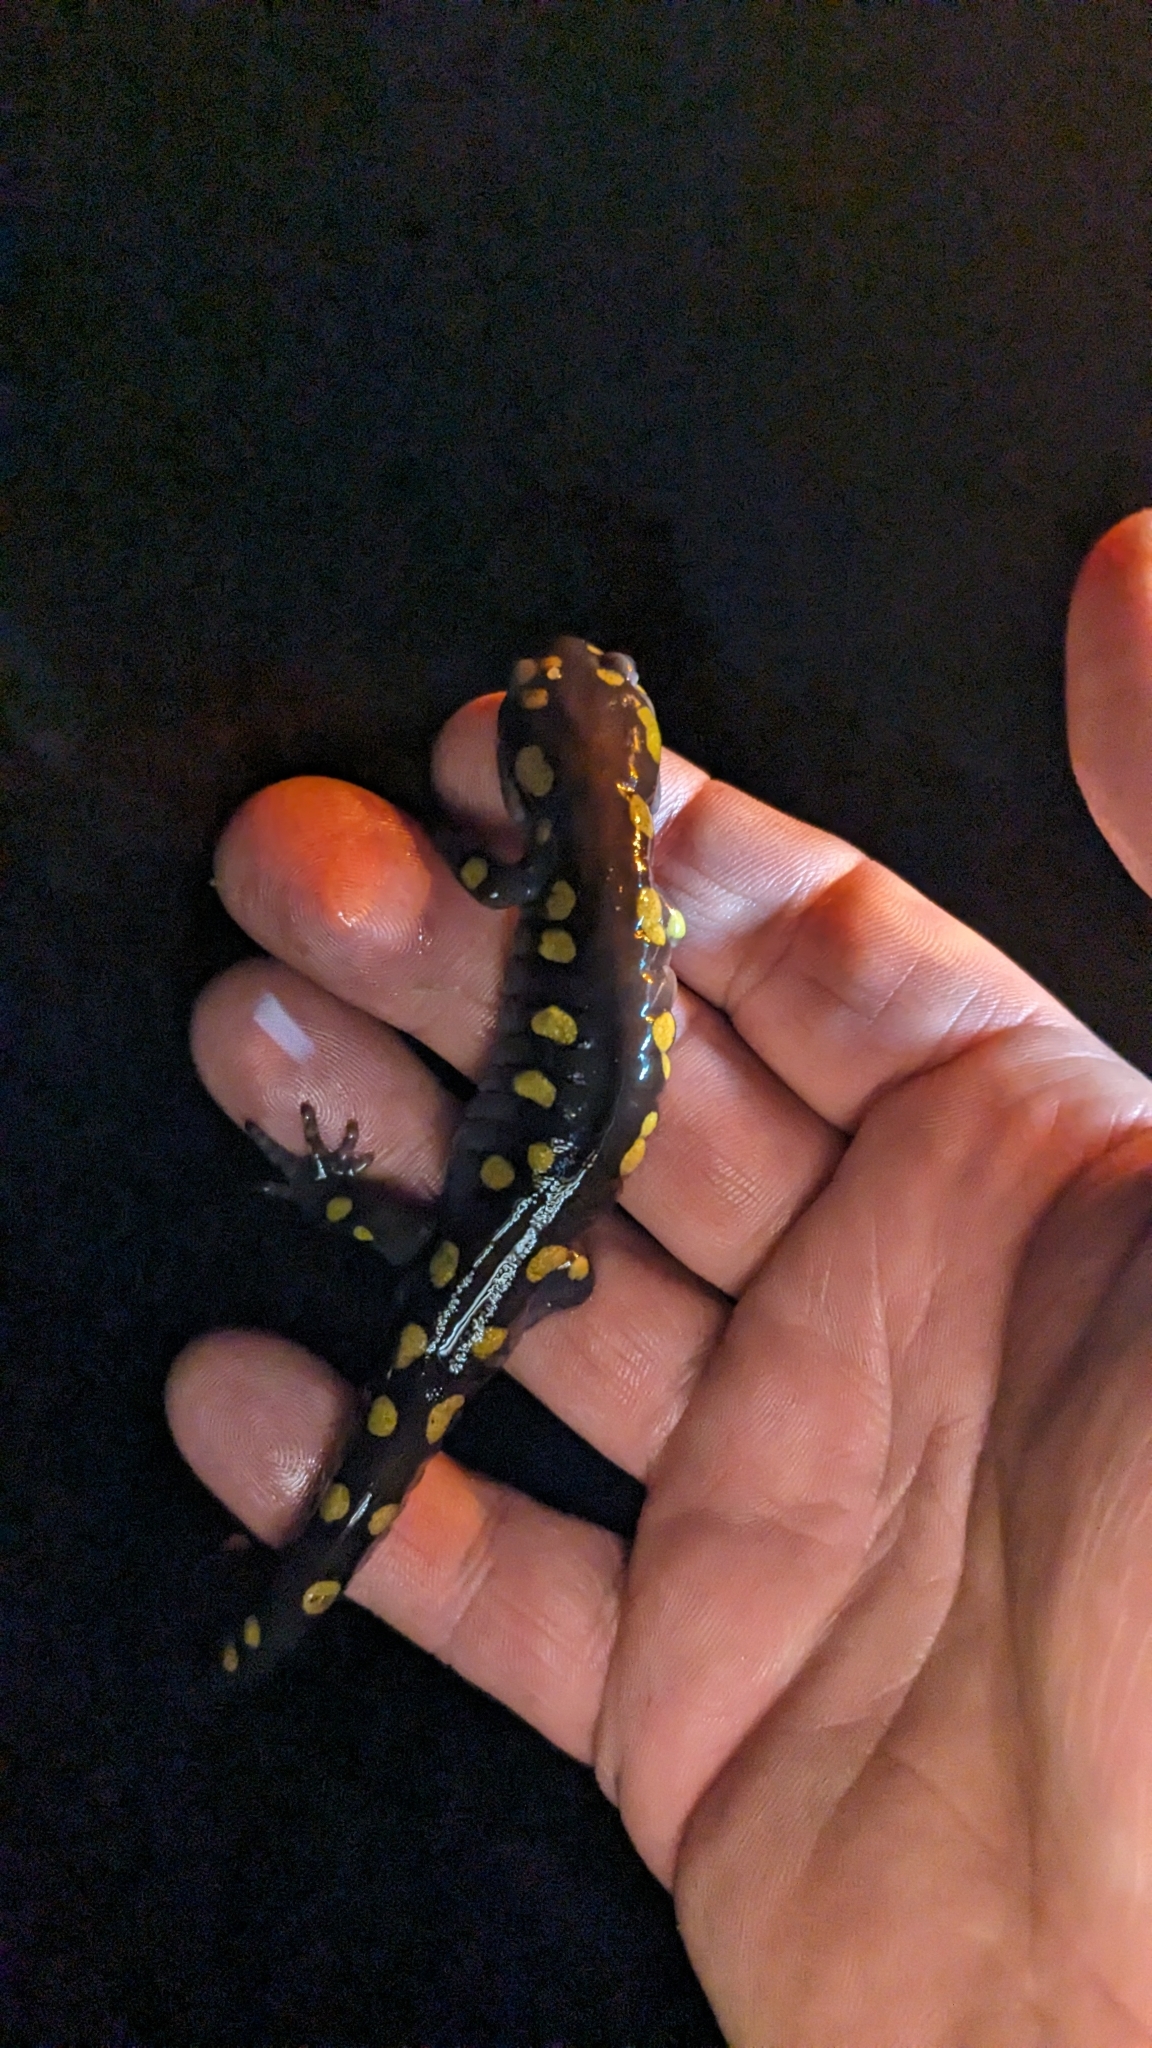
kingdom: Animalia
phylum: Chordata
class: Amphibia
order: Caudata
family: Ambystomatidae
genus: Ambystoma
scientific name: Ambystoma maculatum
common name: Spotted salamander
